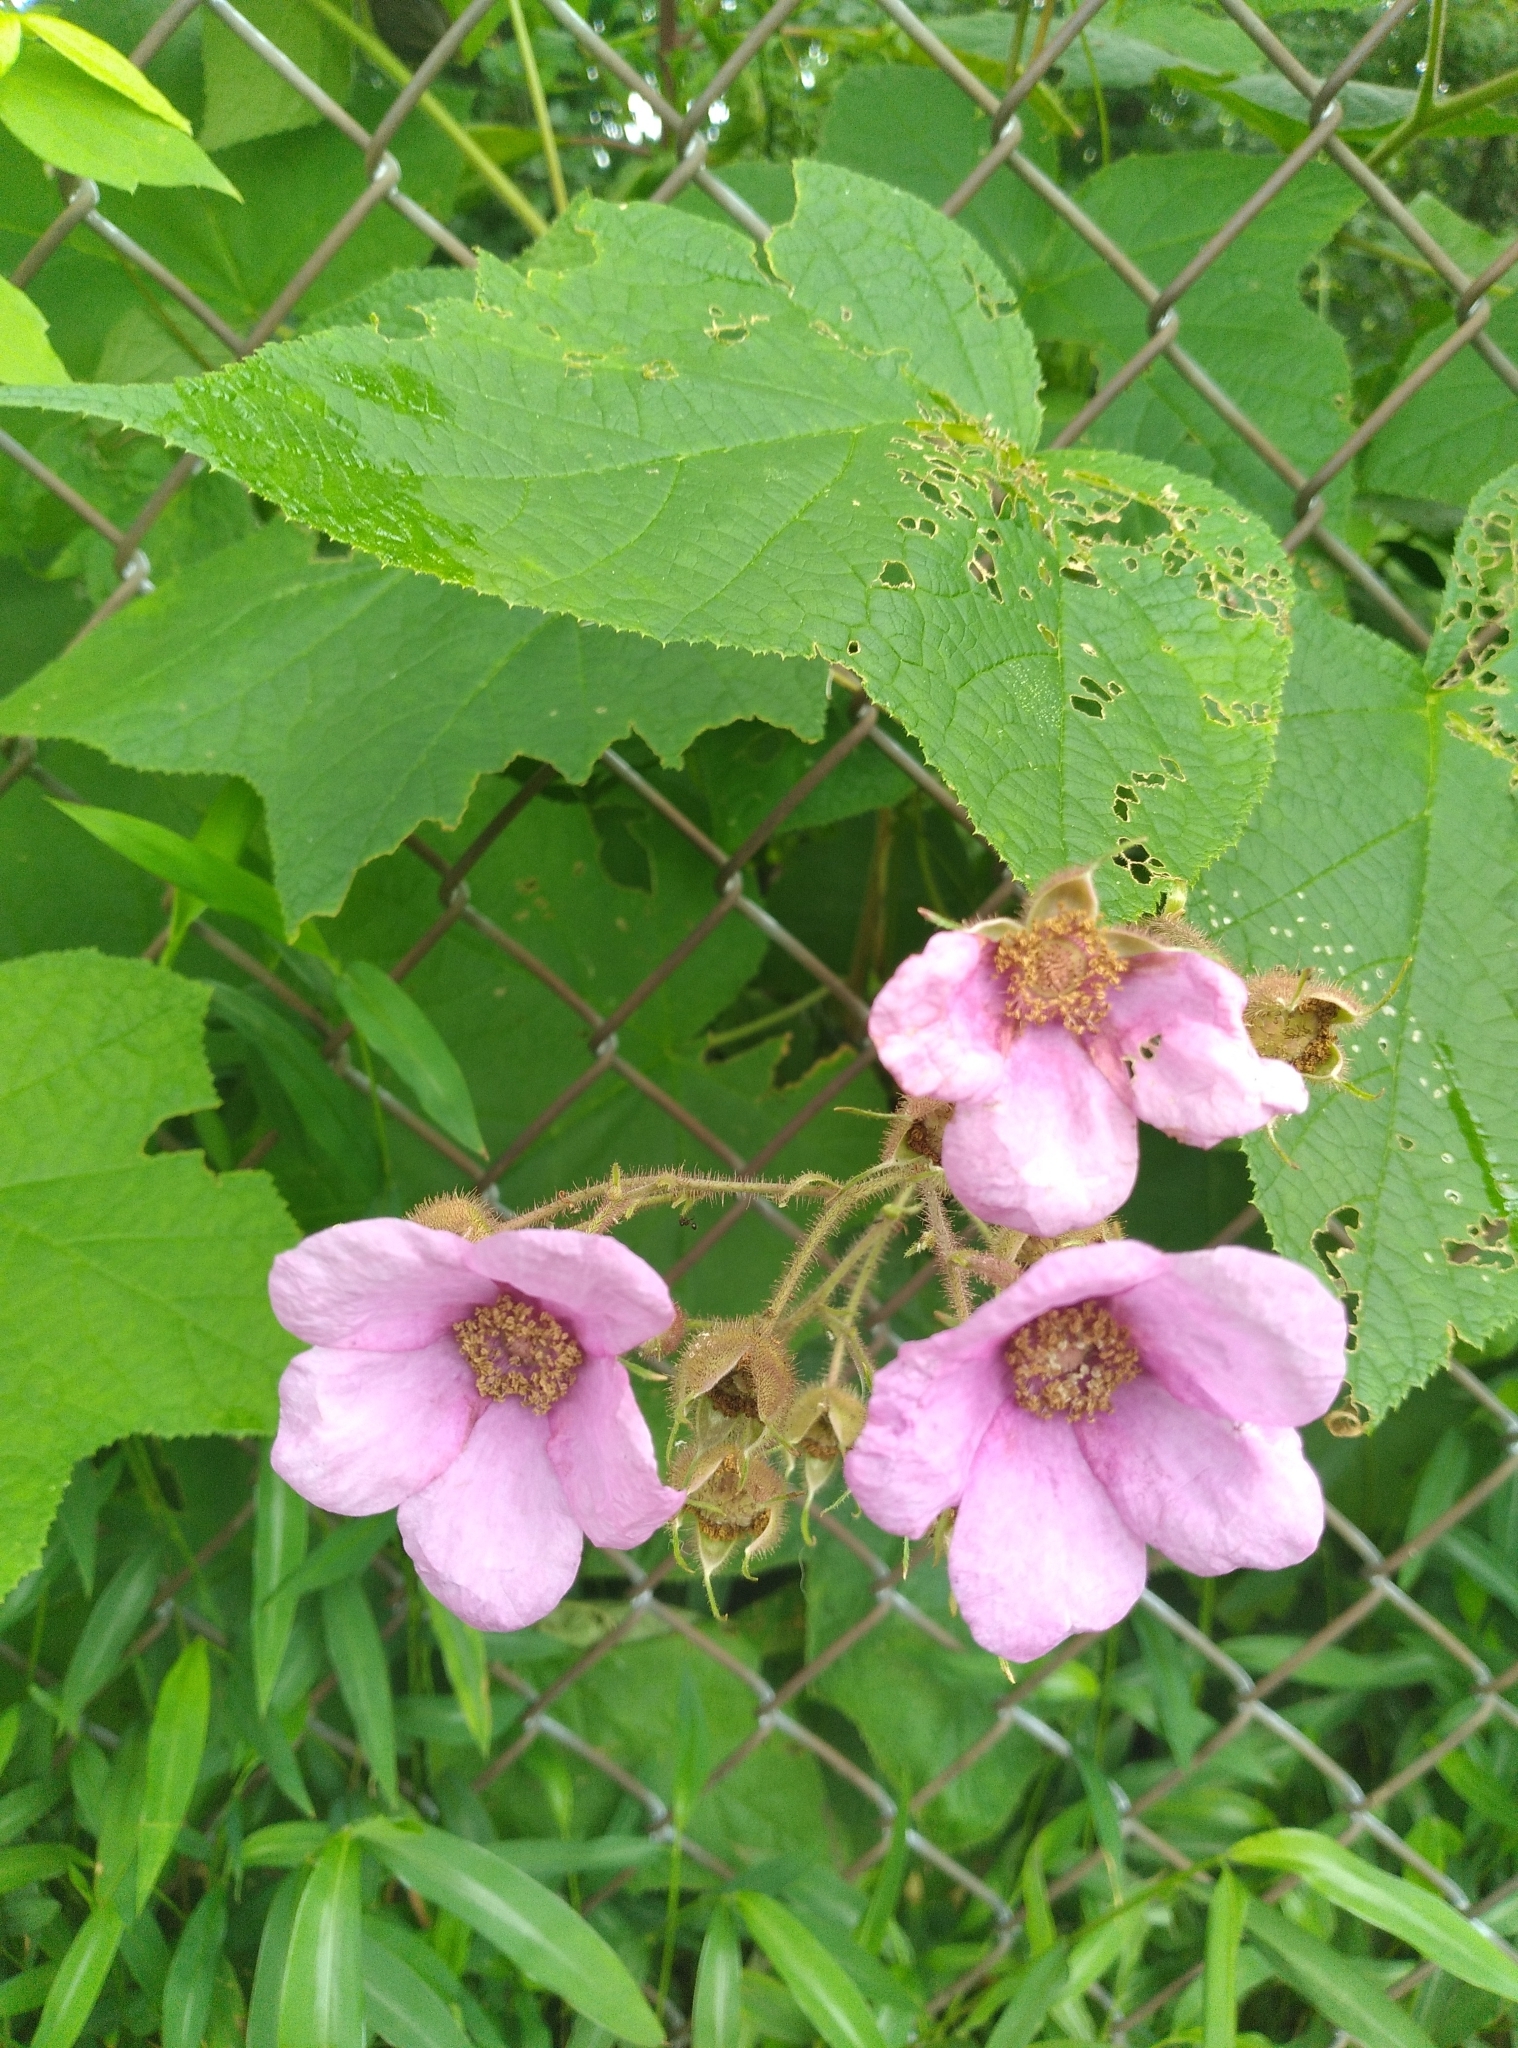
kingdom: Plantae
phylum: Tracheophyta
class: Magnoliopsida
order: Rosales
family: Rosaceae
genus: Rubus
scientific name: Rubus odoratus
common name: Purple-flowered raspberry
